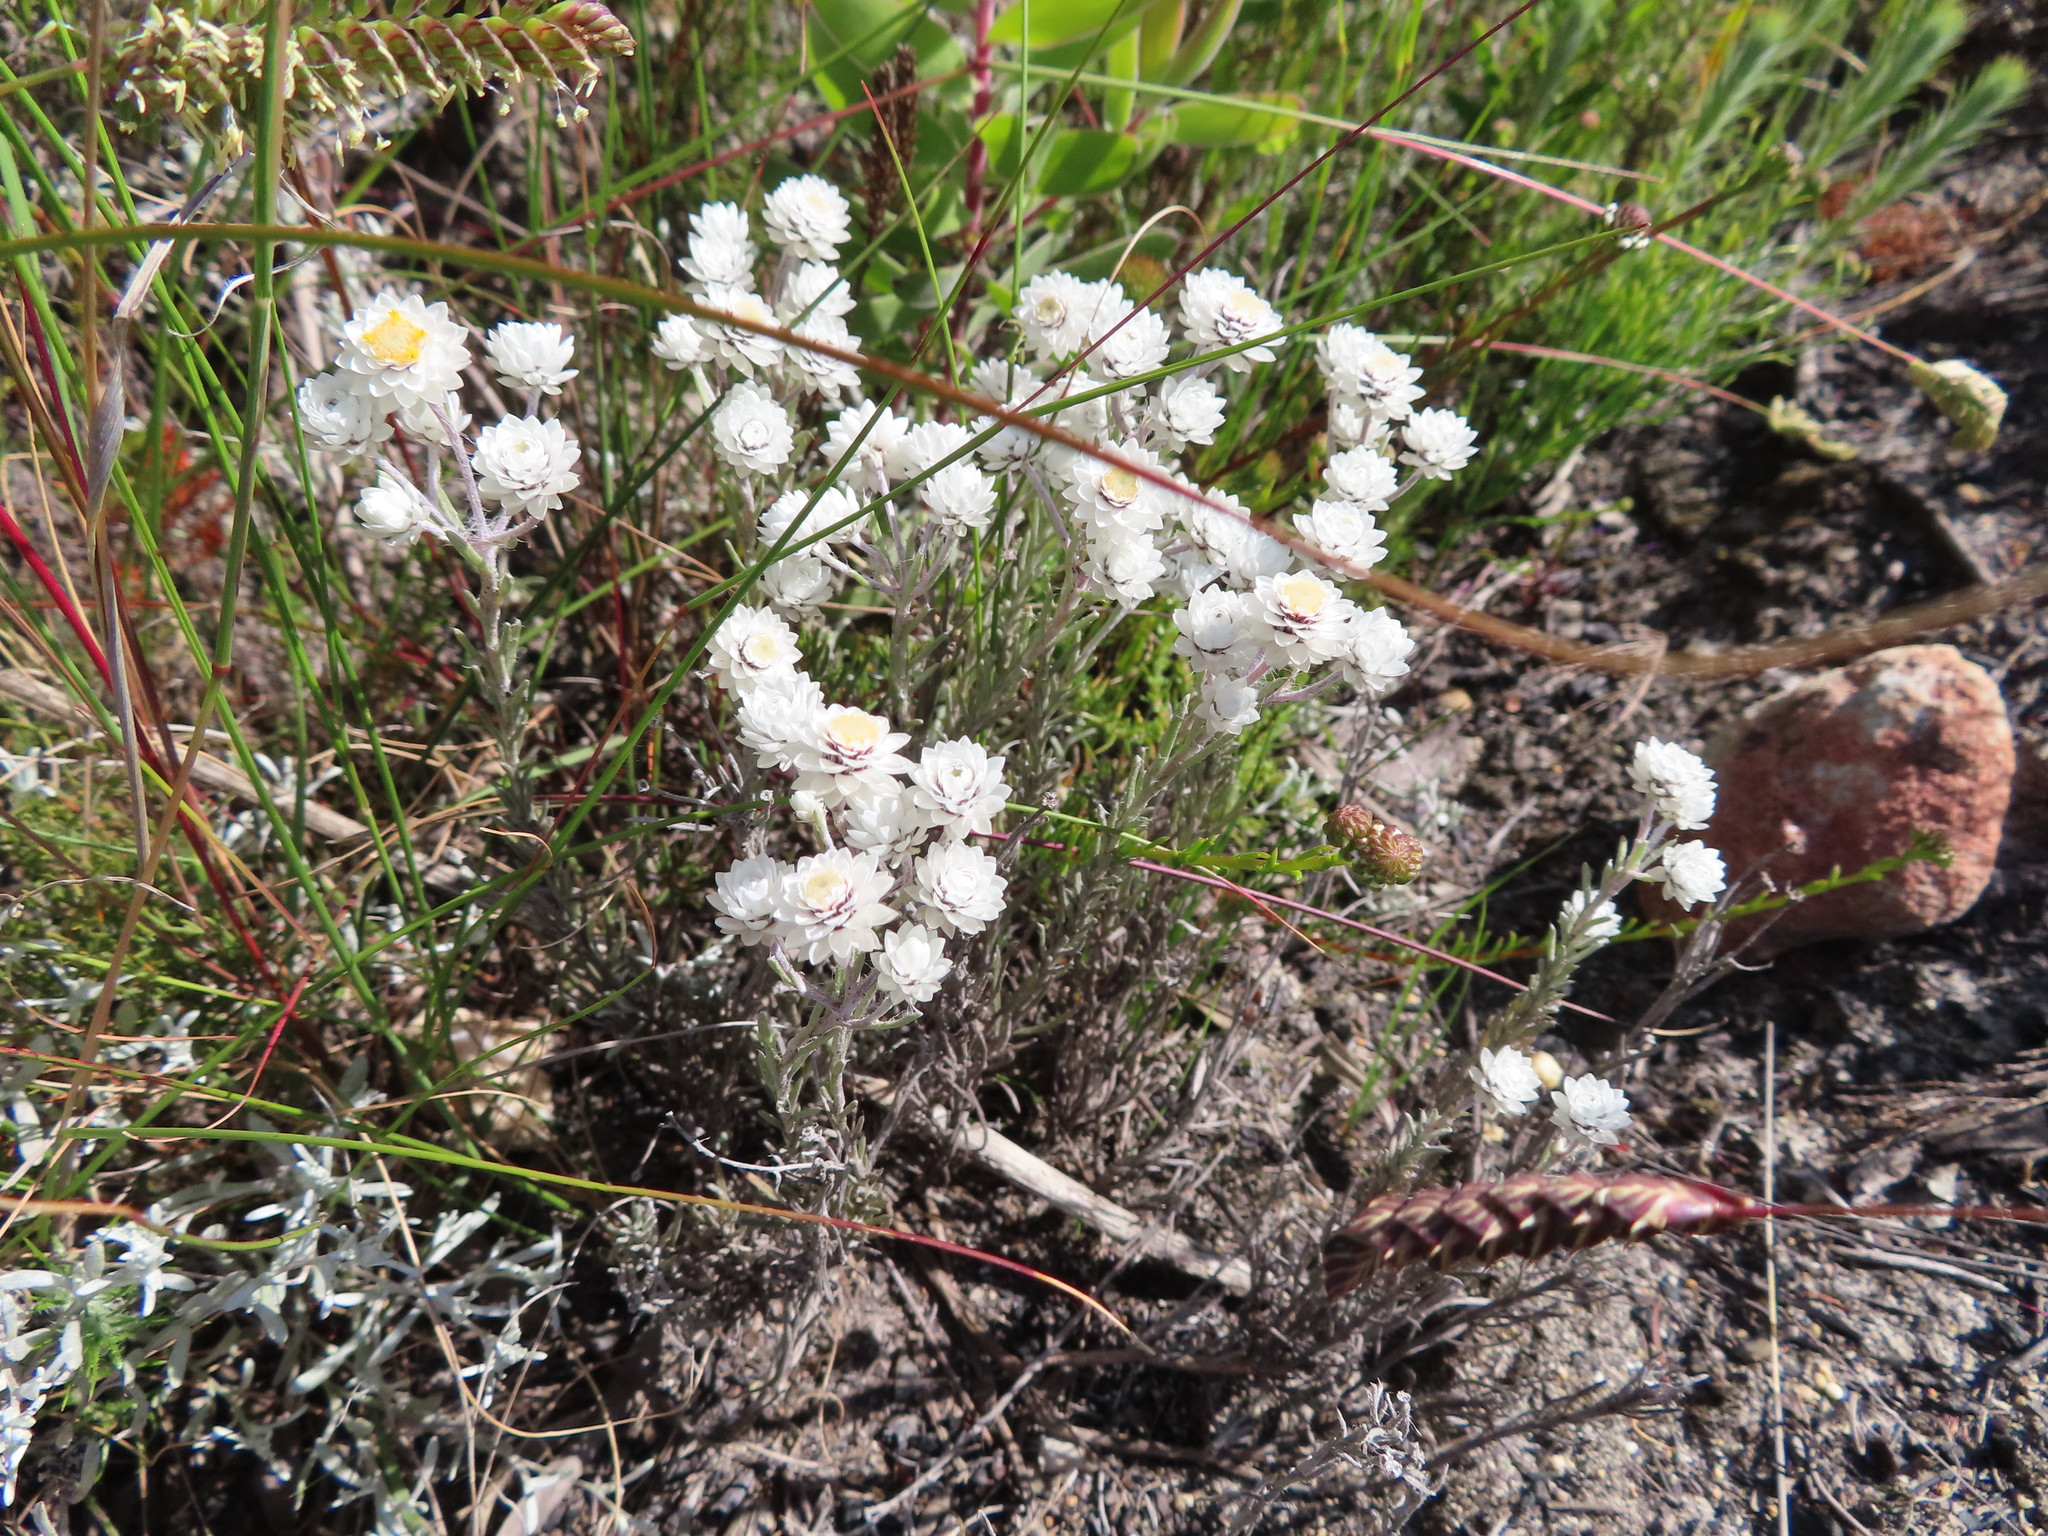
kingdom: Plantae
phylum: Tracheophyta
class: Magnoliopsida
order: Asterales
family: Asteraceae
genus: Achyranthemum
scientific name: Achyranthemum paniculatum
